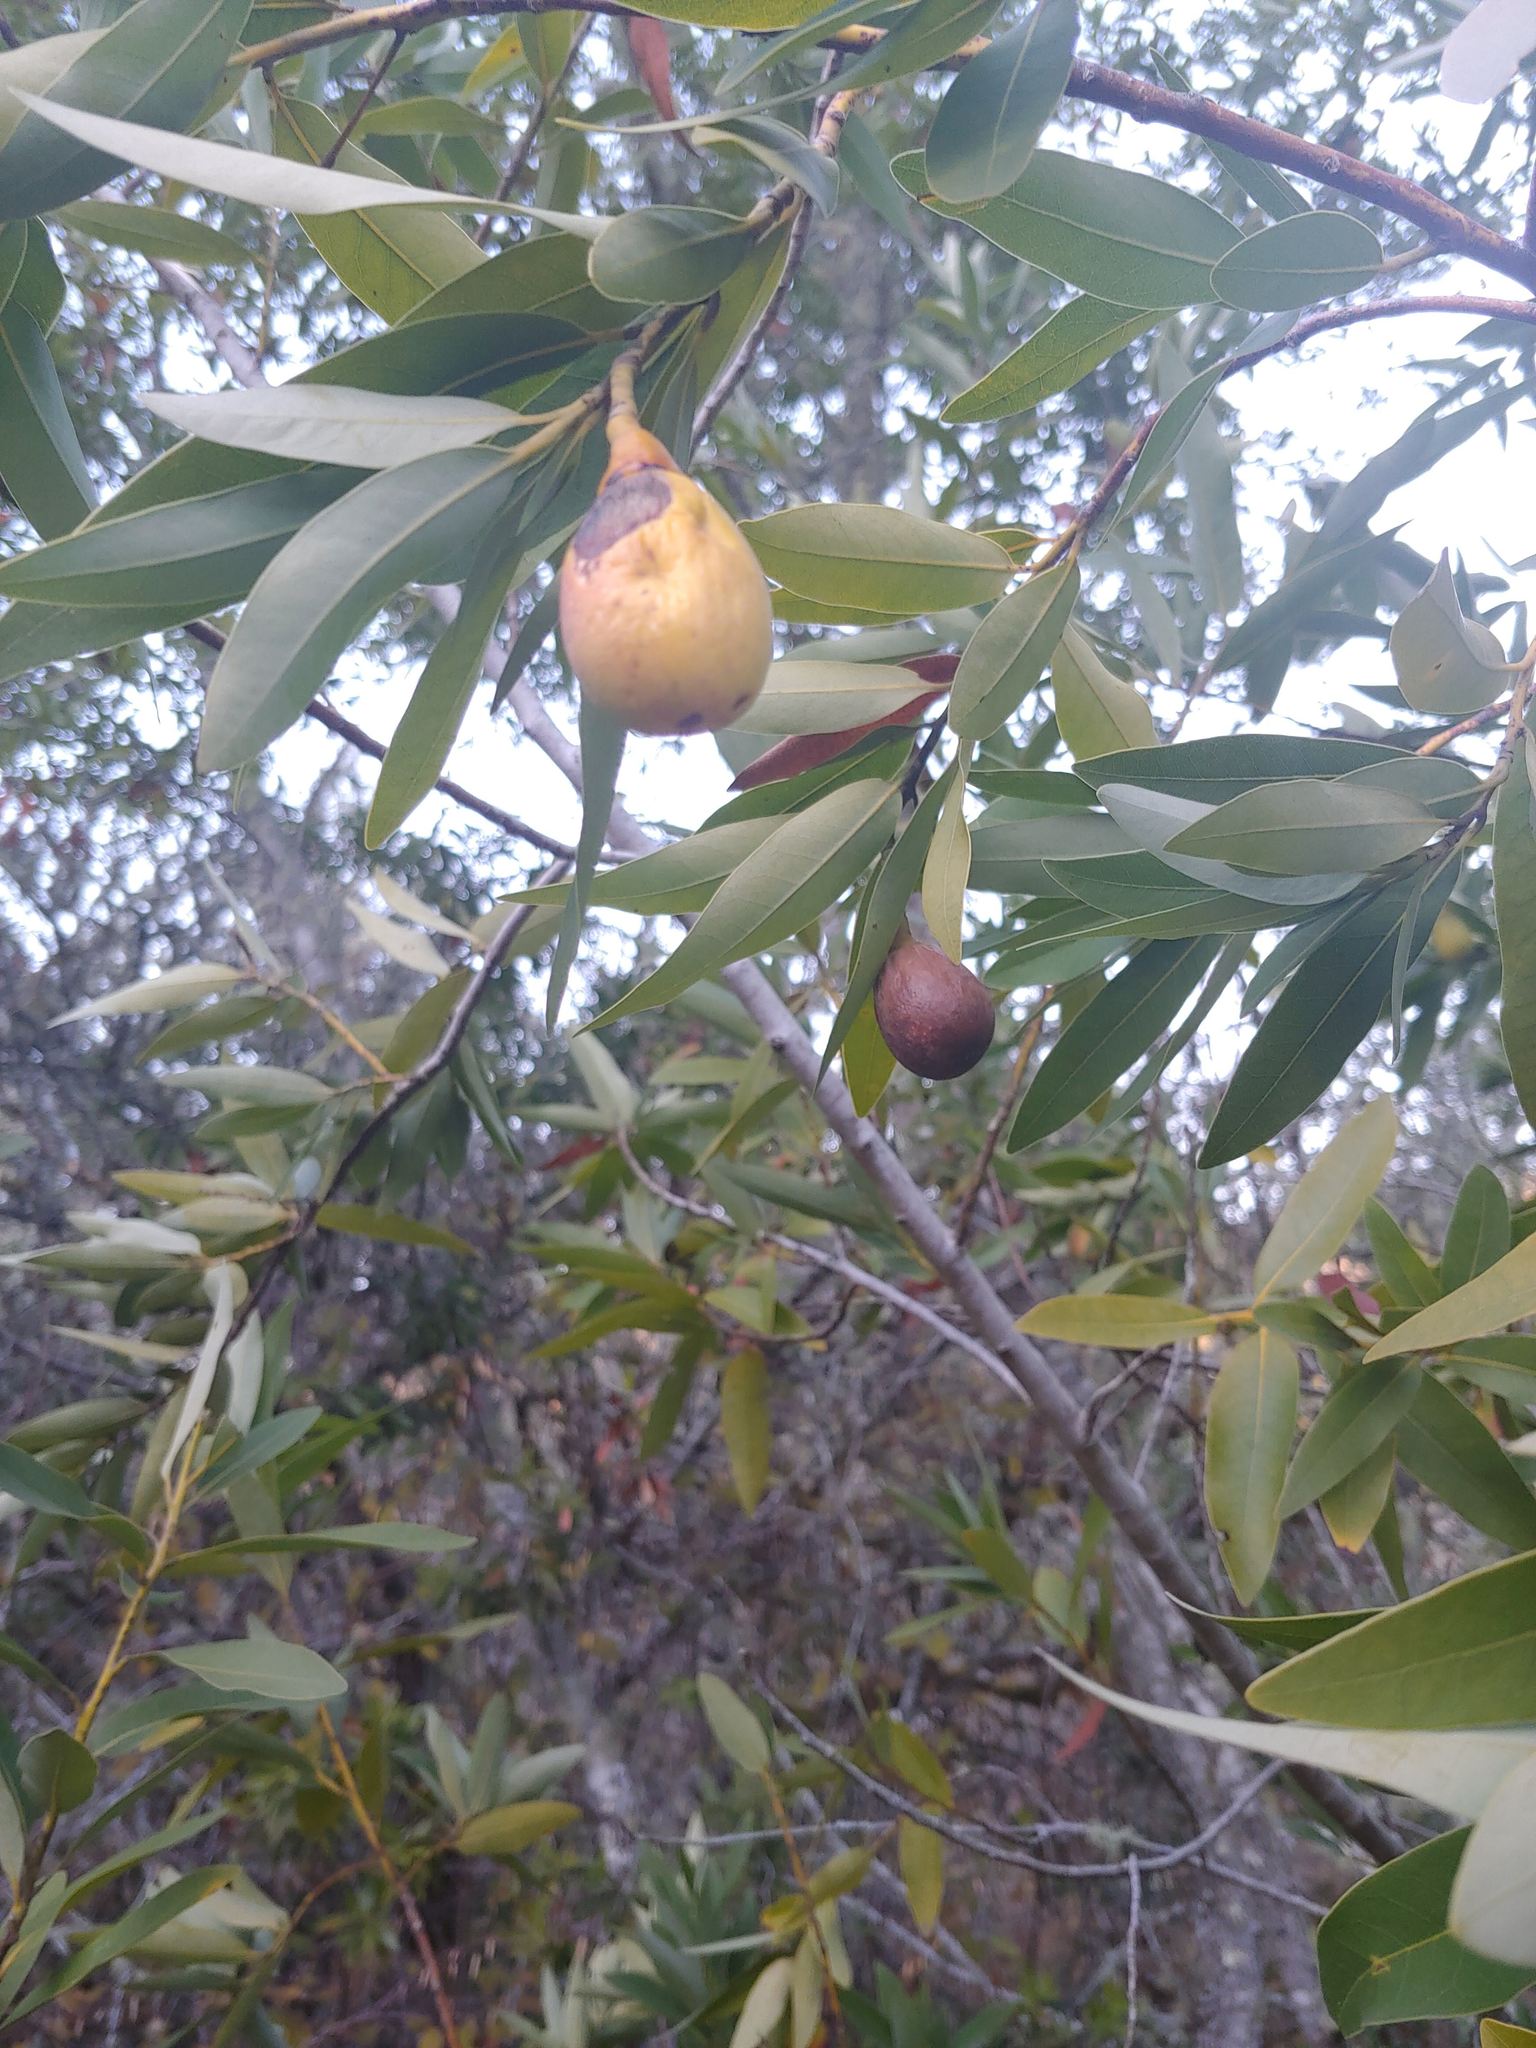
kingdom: Plantae
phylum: Tracheophyta
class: Magnoliopsida
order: Laurales
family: Lauraceae
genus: Umbellularia
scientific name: Umbellularia californica
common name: California bay
